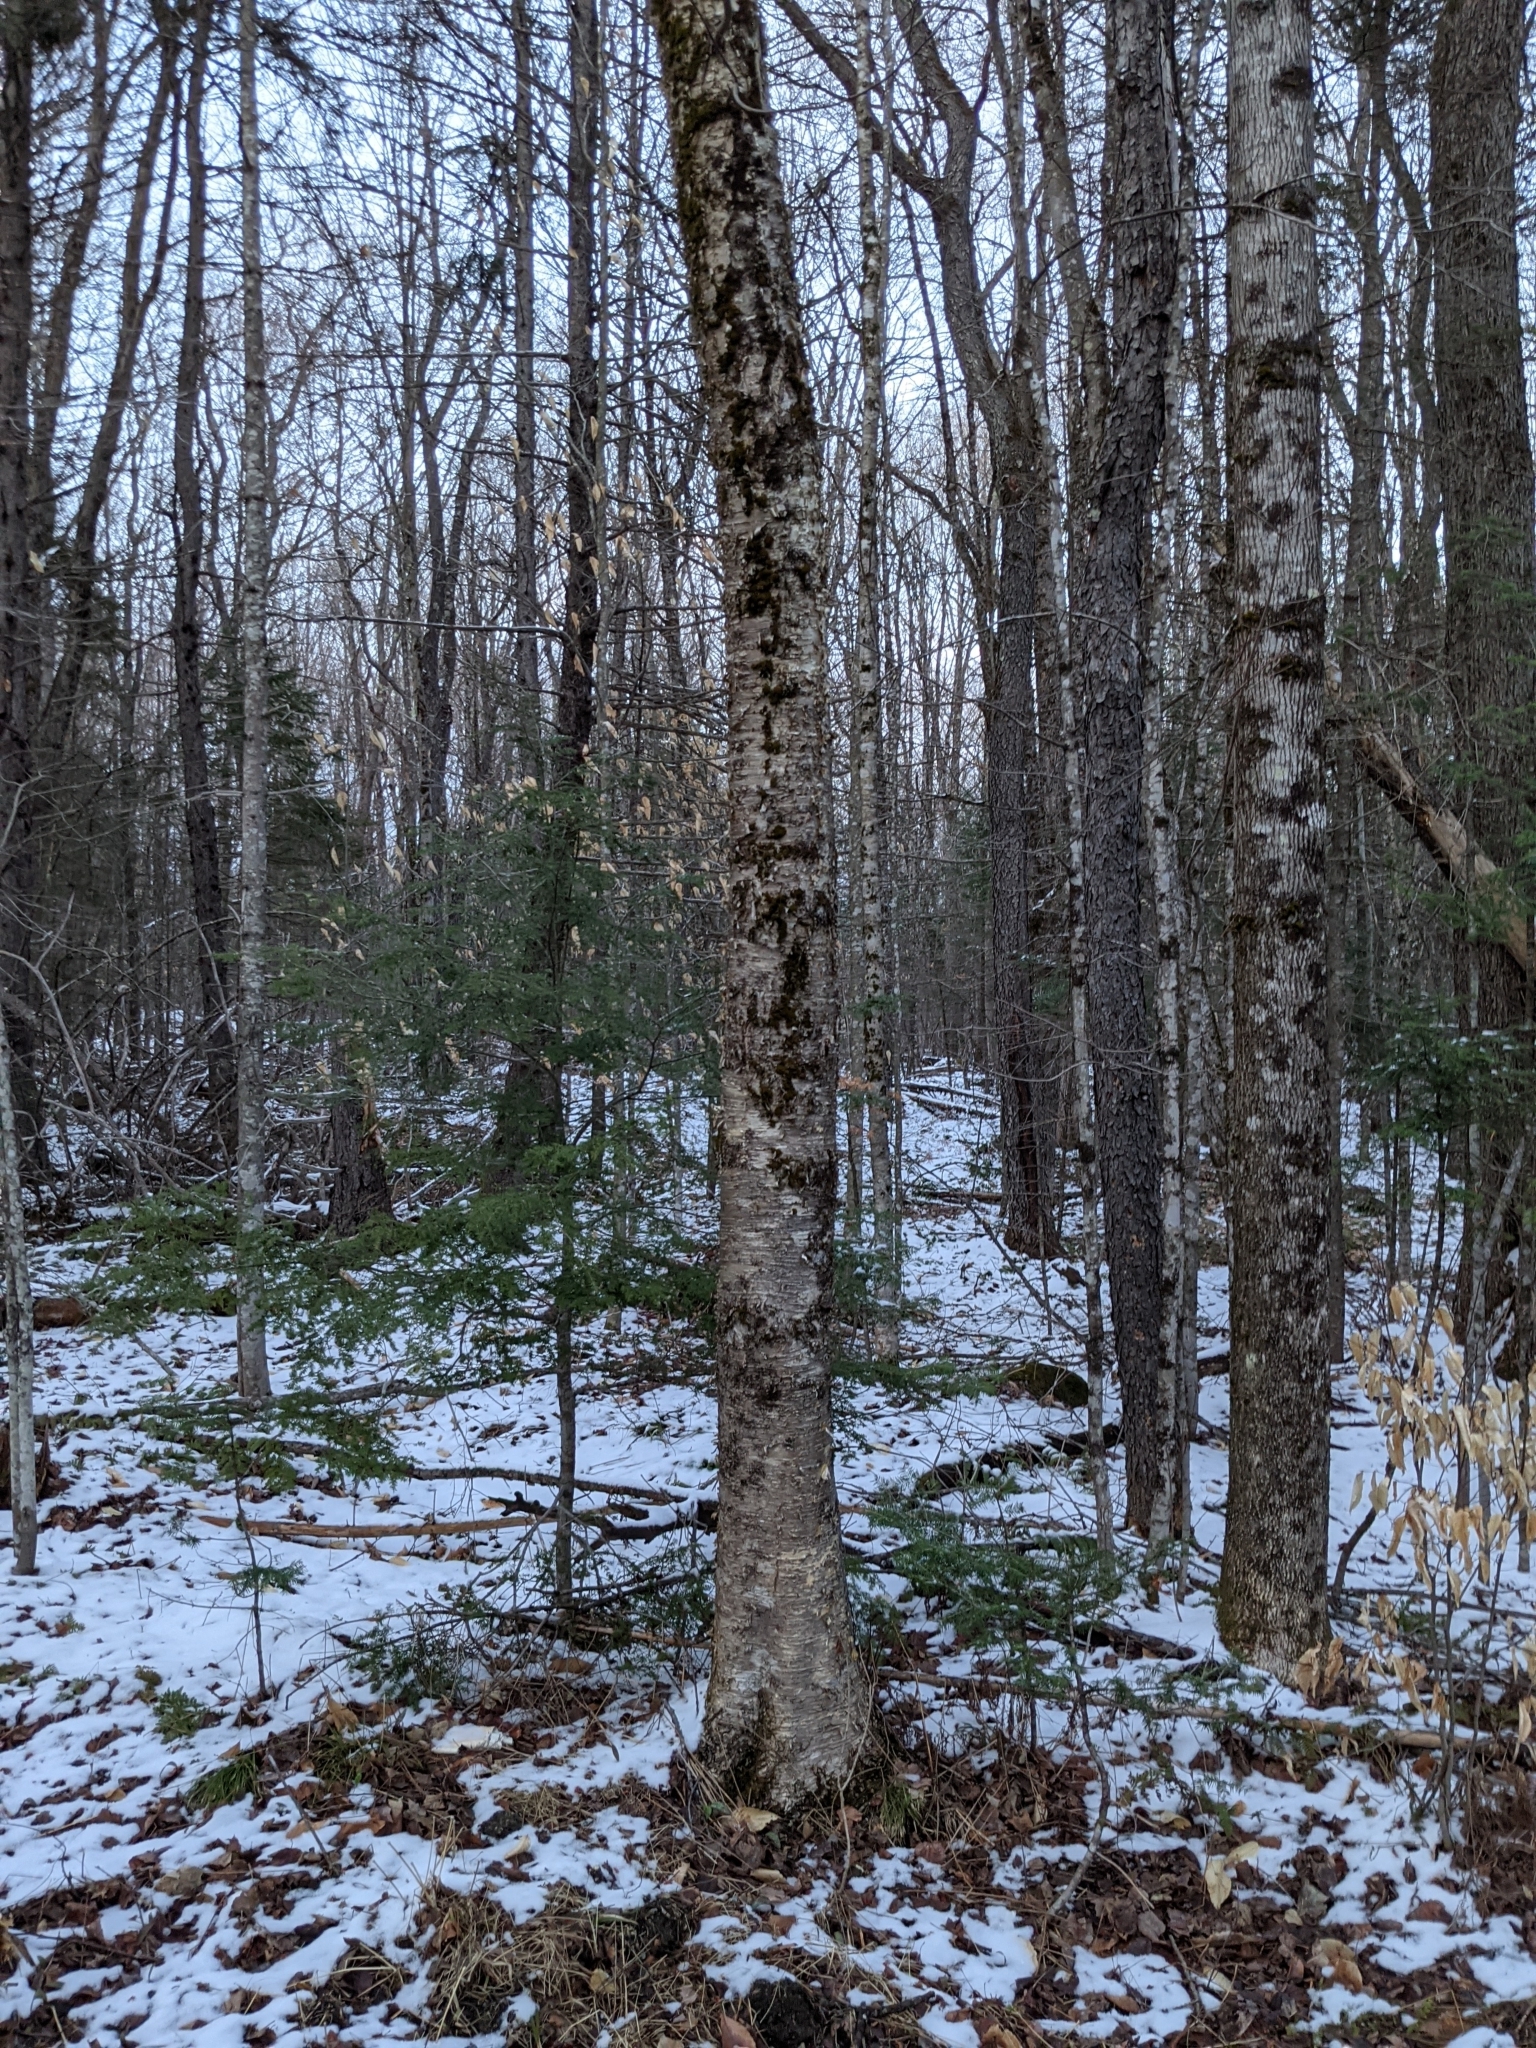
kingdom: Plantae
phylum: Tracheophyta
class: Magnoliopsida
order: Fagales
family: Betulaceae
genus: Betula
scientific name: Betula alleghaniensis
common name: Yellow birch
